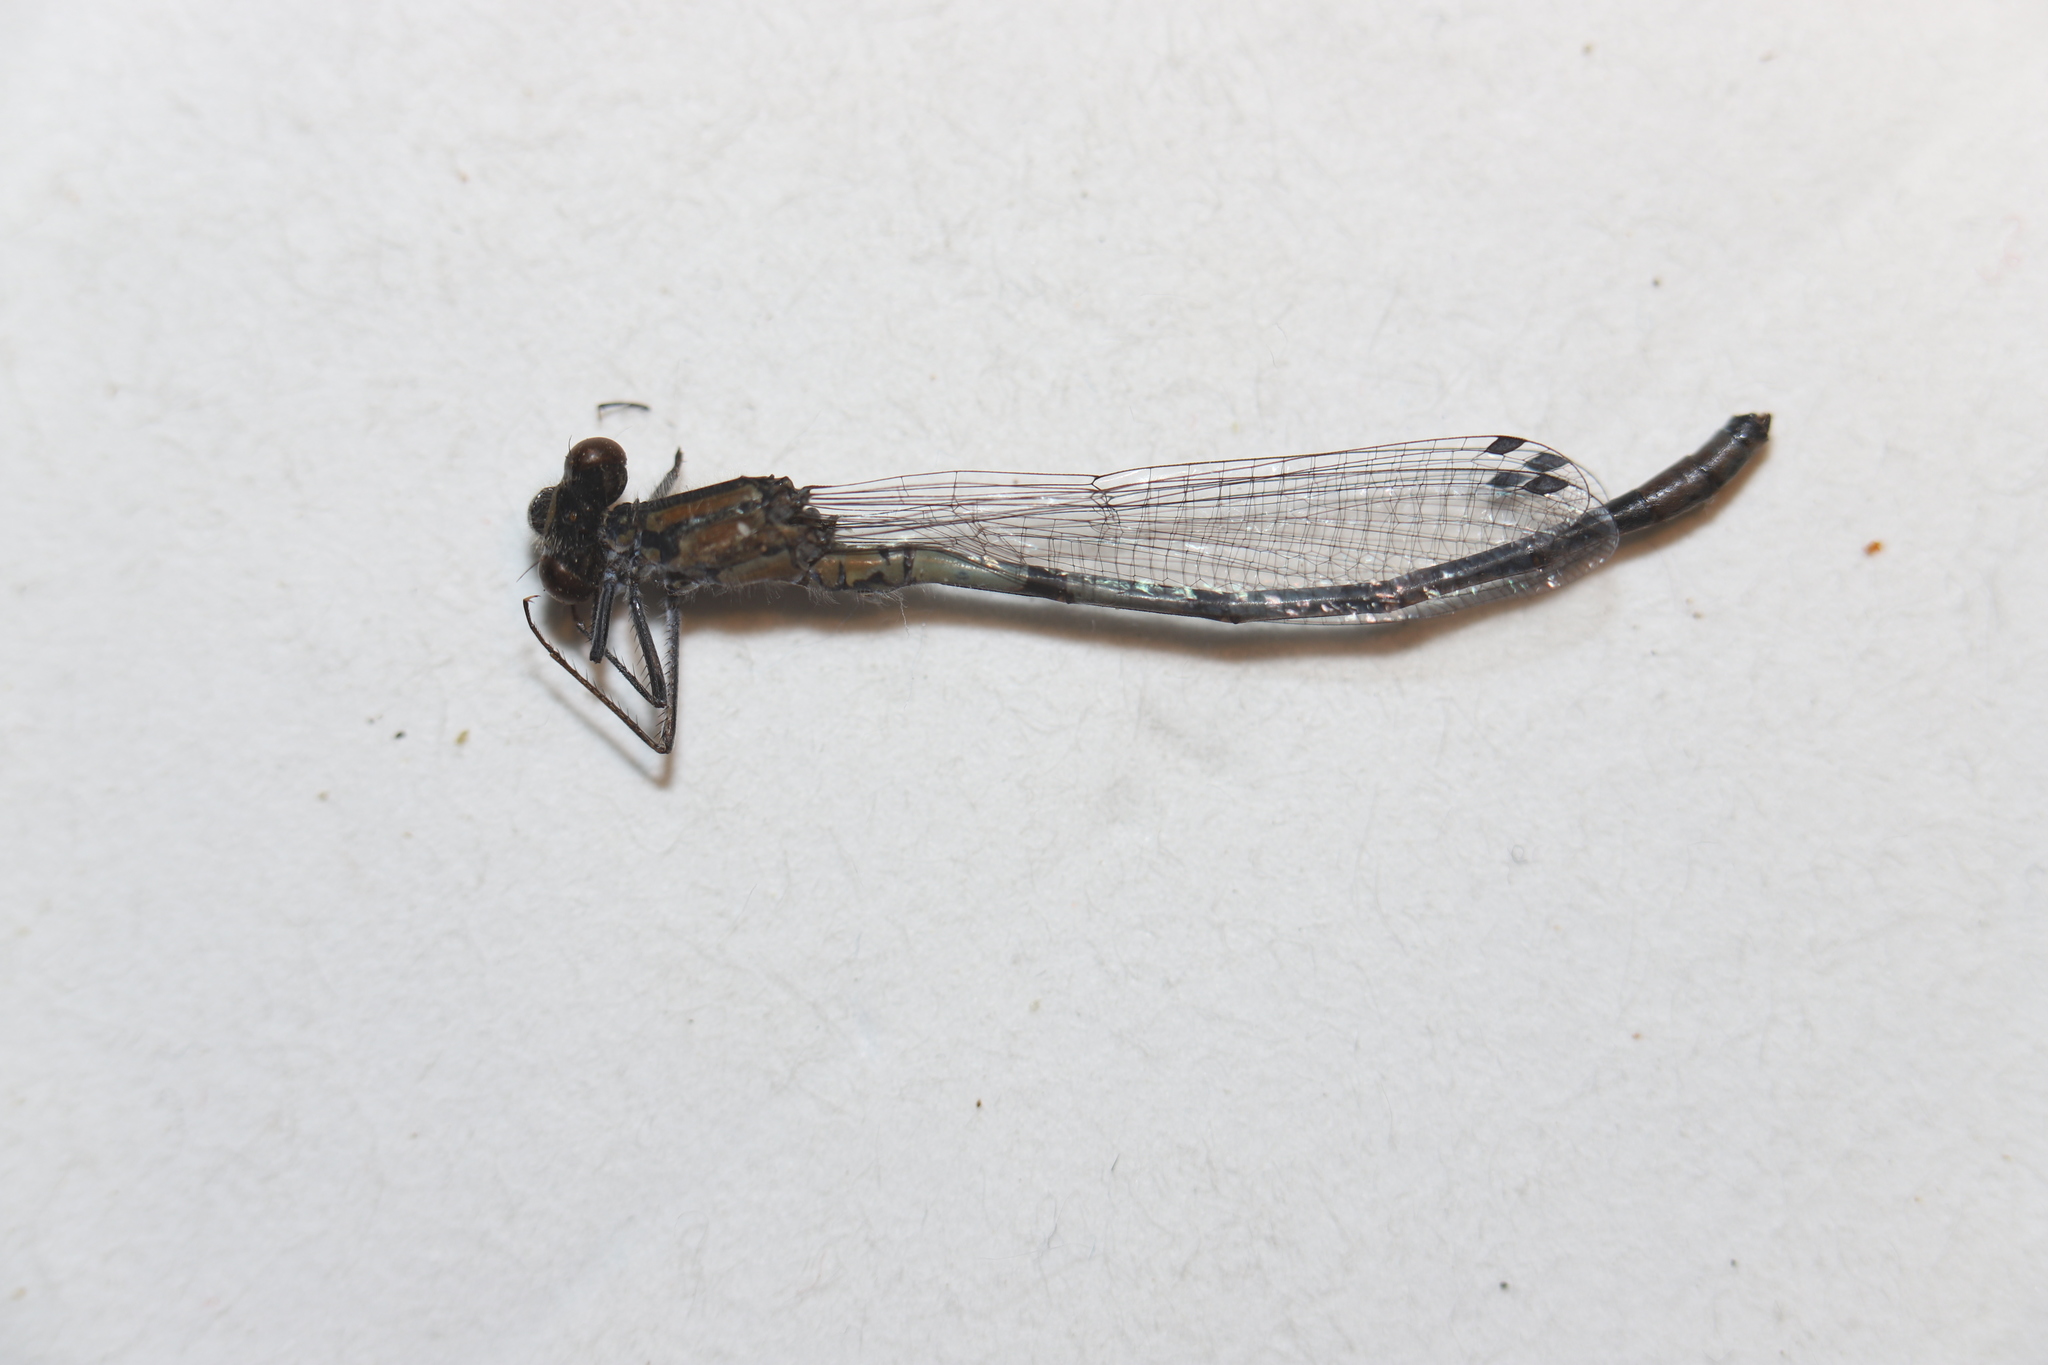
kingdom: Animalia
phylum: Arthropoda
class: Insecta
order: Odonata
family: Coenagrionidae
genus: Enallagma
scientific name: Enallagma boreale
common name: Boreal bluet
